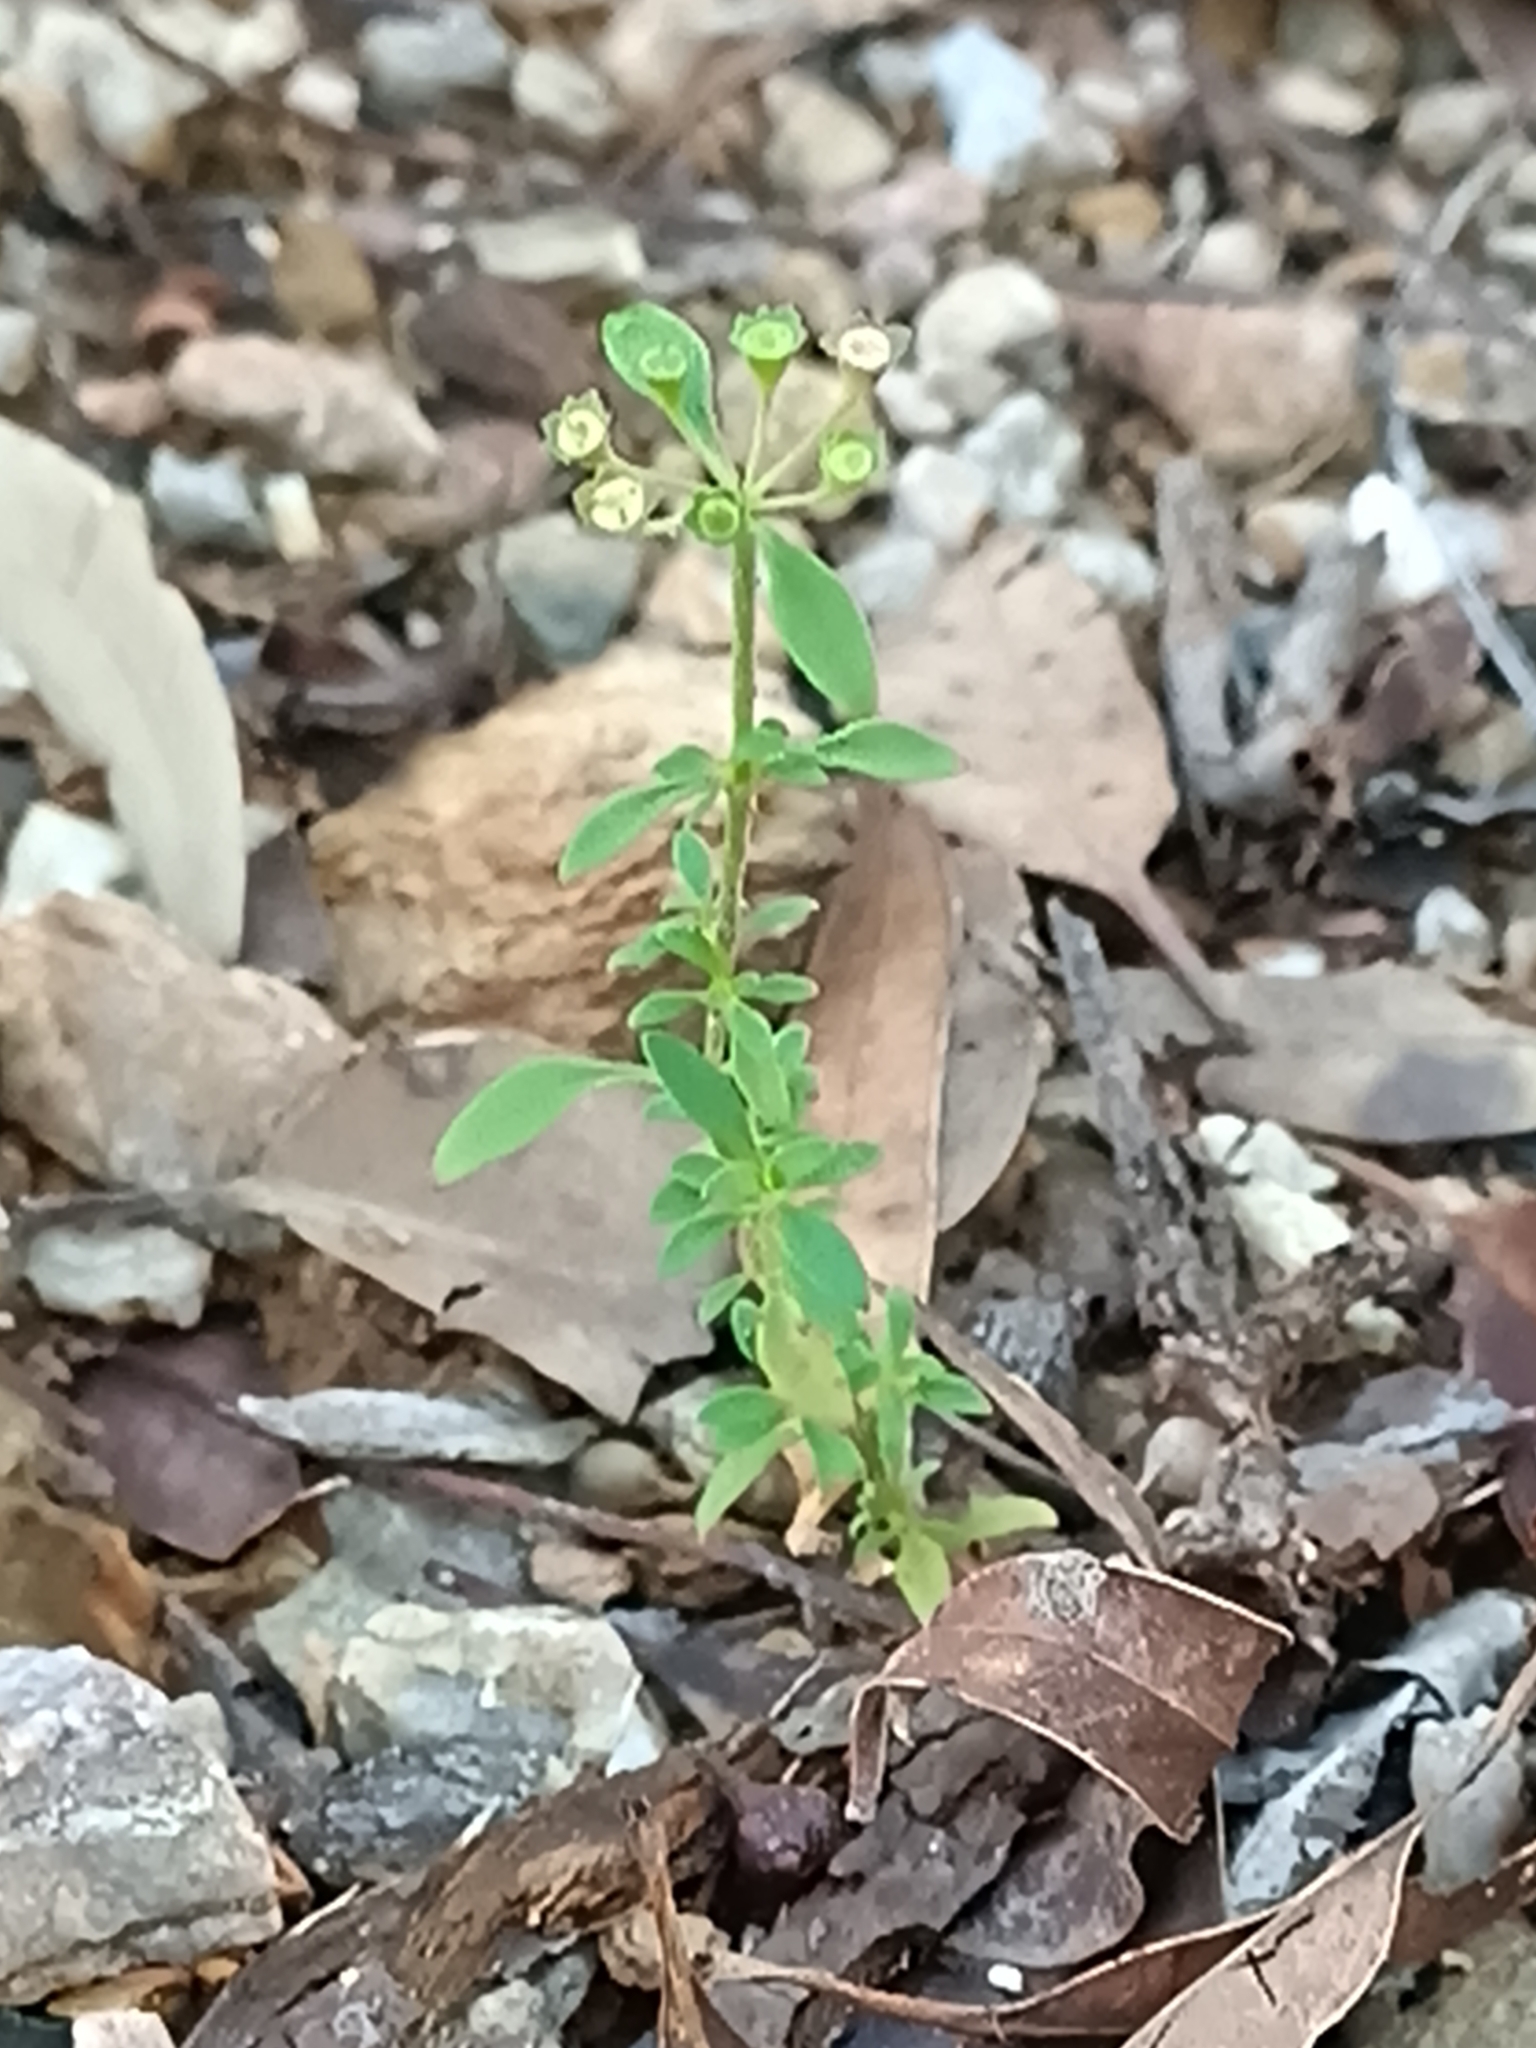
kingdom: Plantae
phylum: Tracheophyta
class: Magnoliopsida
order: Gentianales
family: Rubiaceae
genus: Pomax
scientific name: Pomax umbellata
